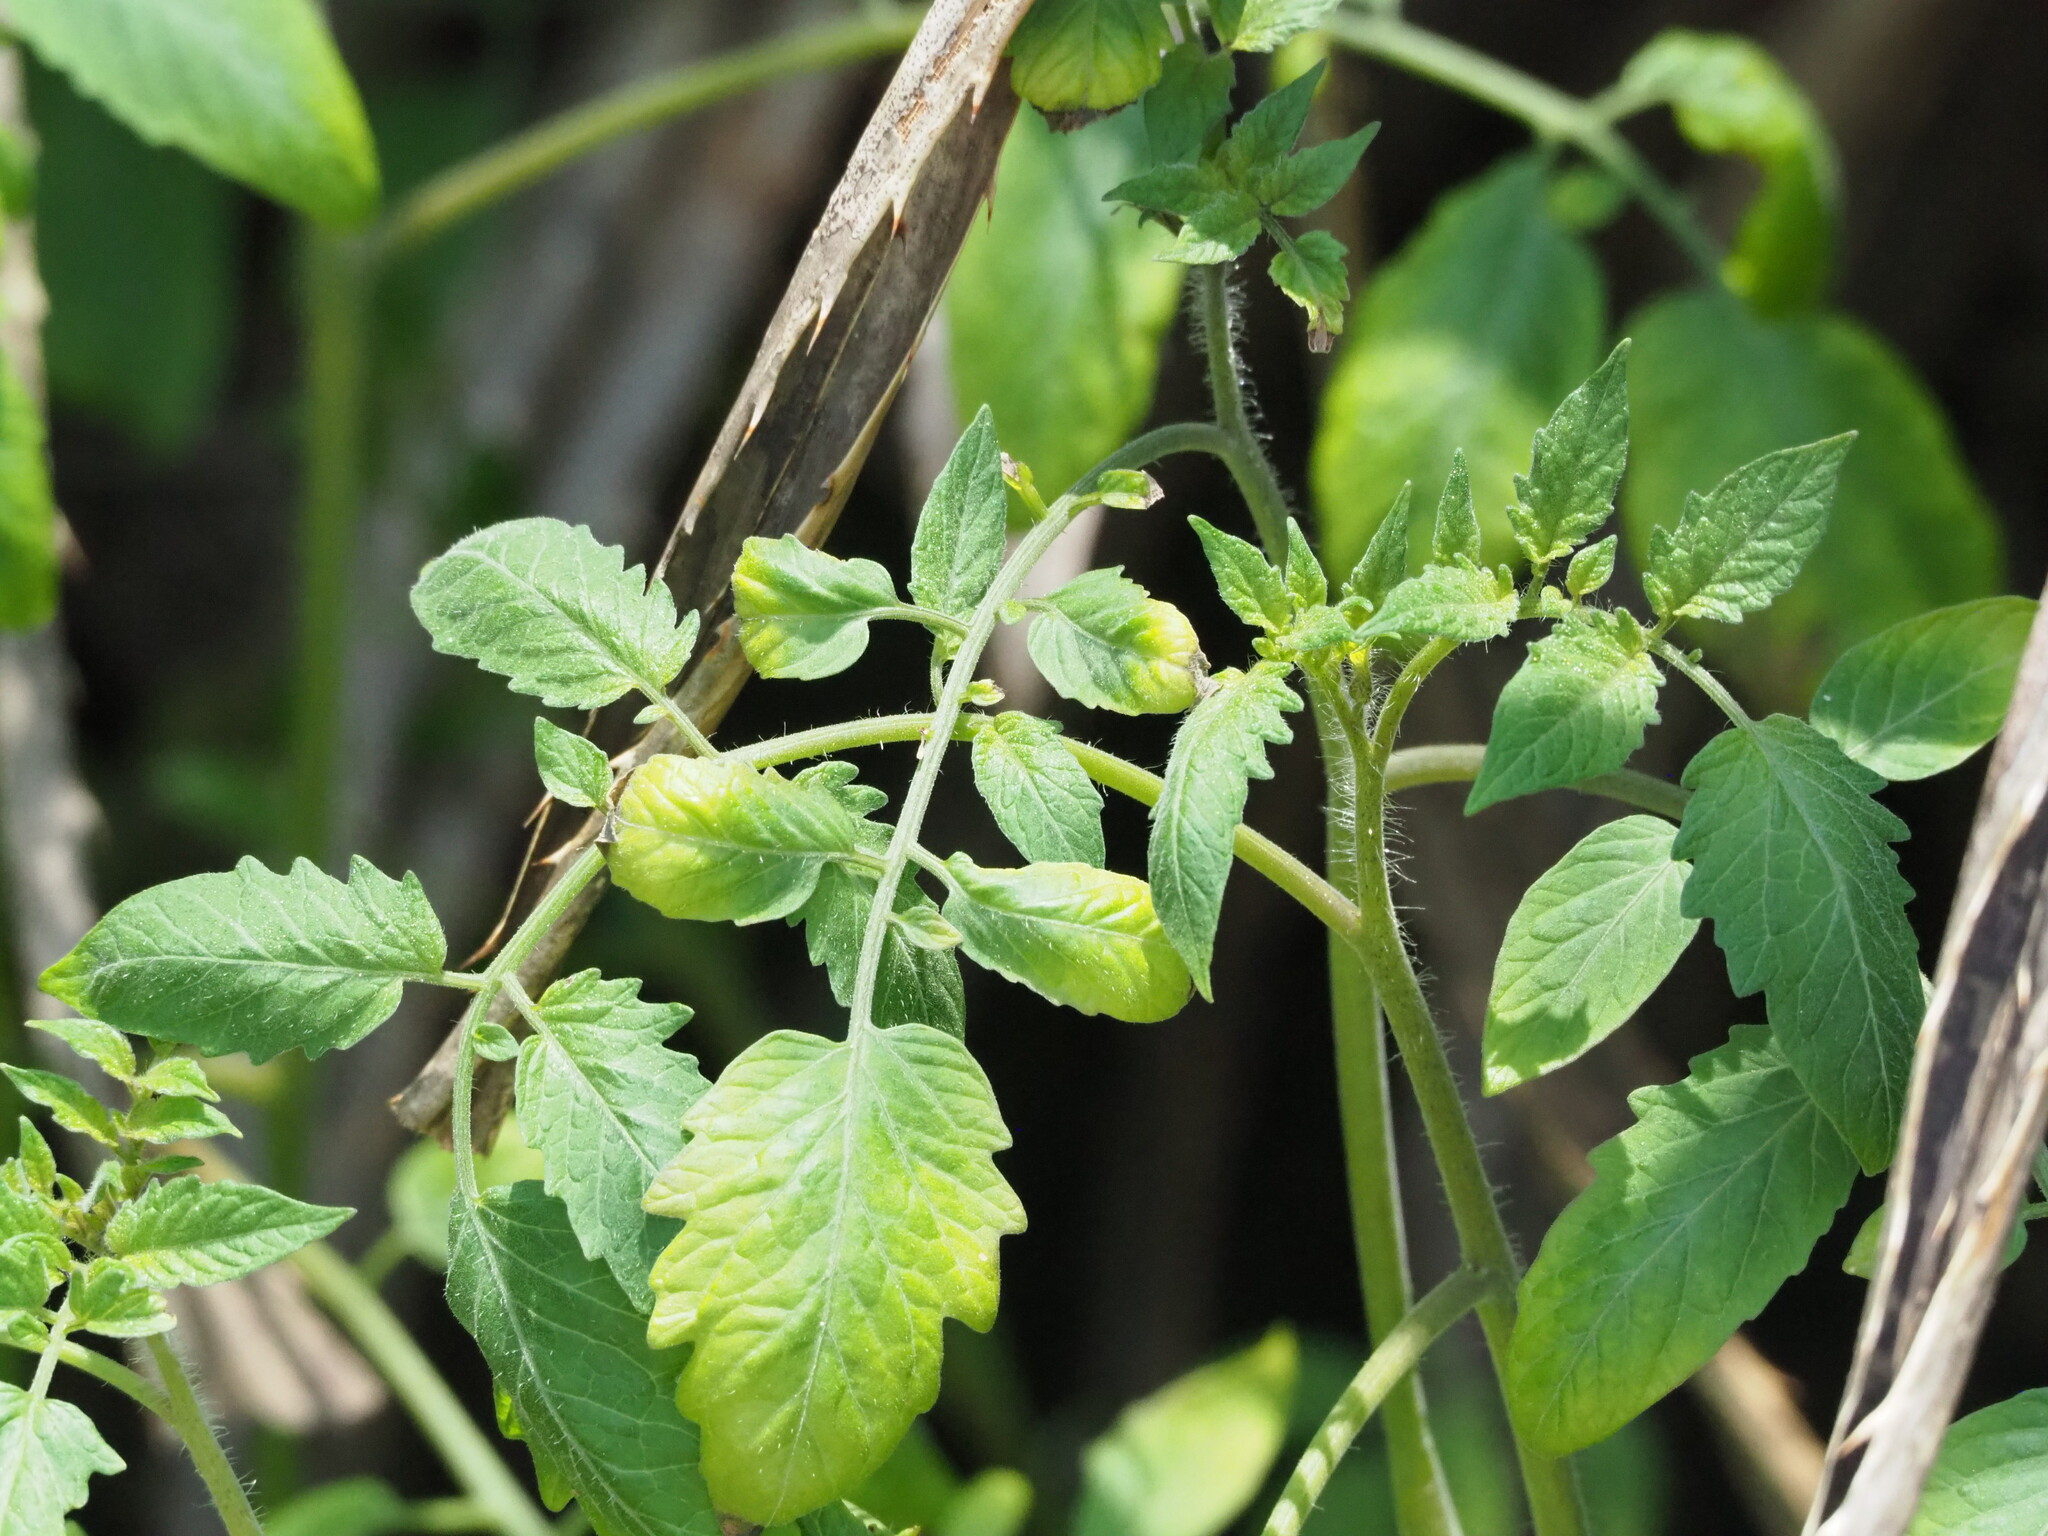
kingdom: Plantae
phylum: Tracheophyta
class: Magnoliopsida
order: Solanales
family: Solanaceae
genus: Solanum
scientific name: Solanum lycopersicum
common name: Garden tomato
